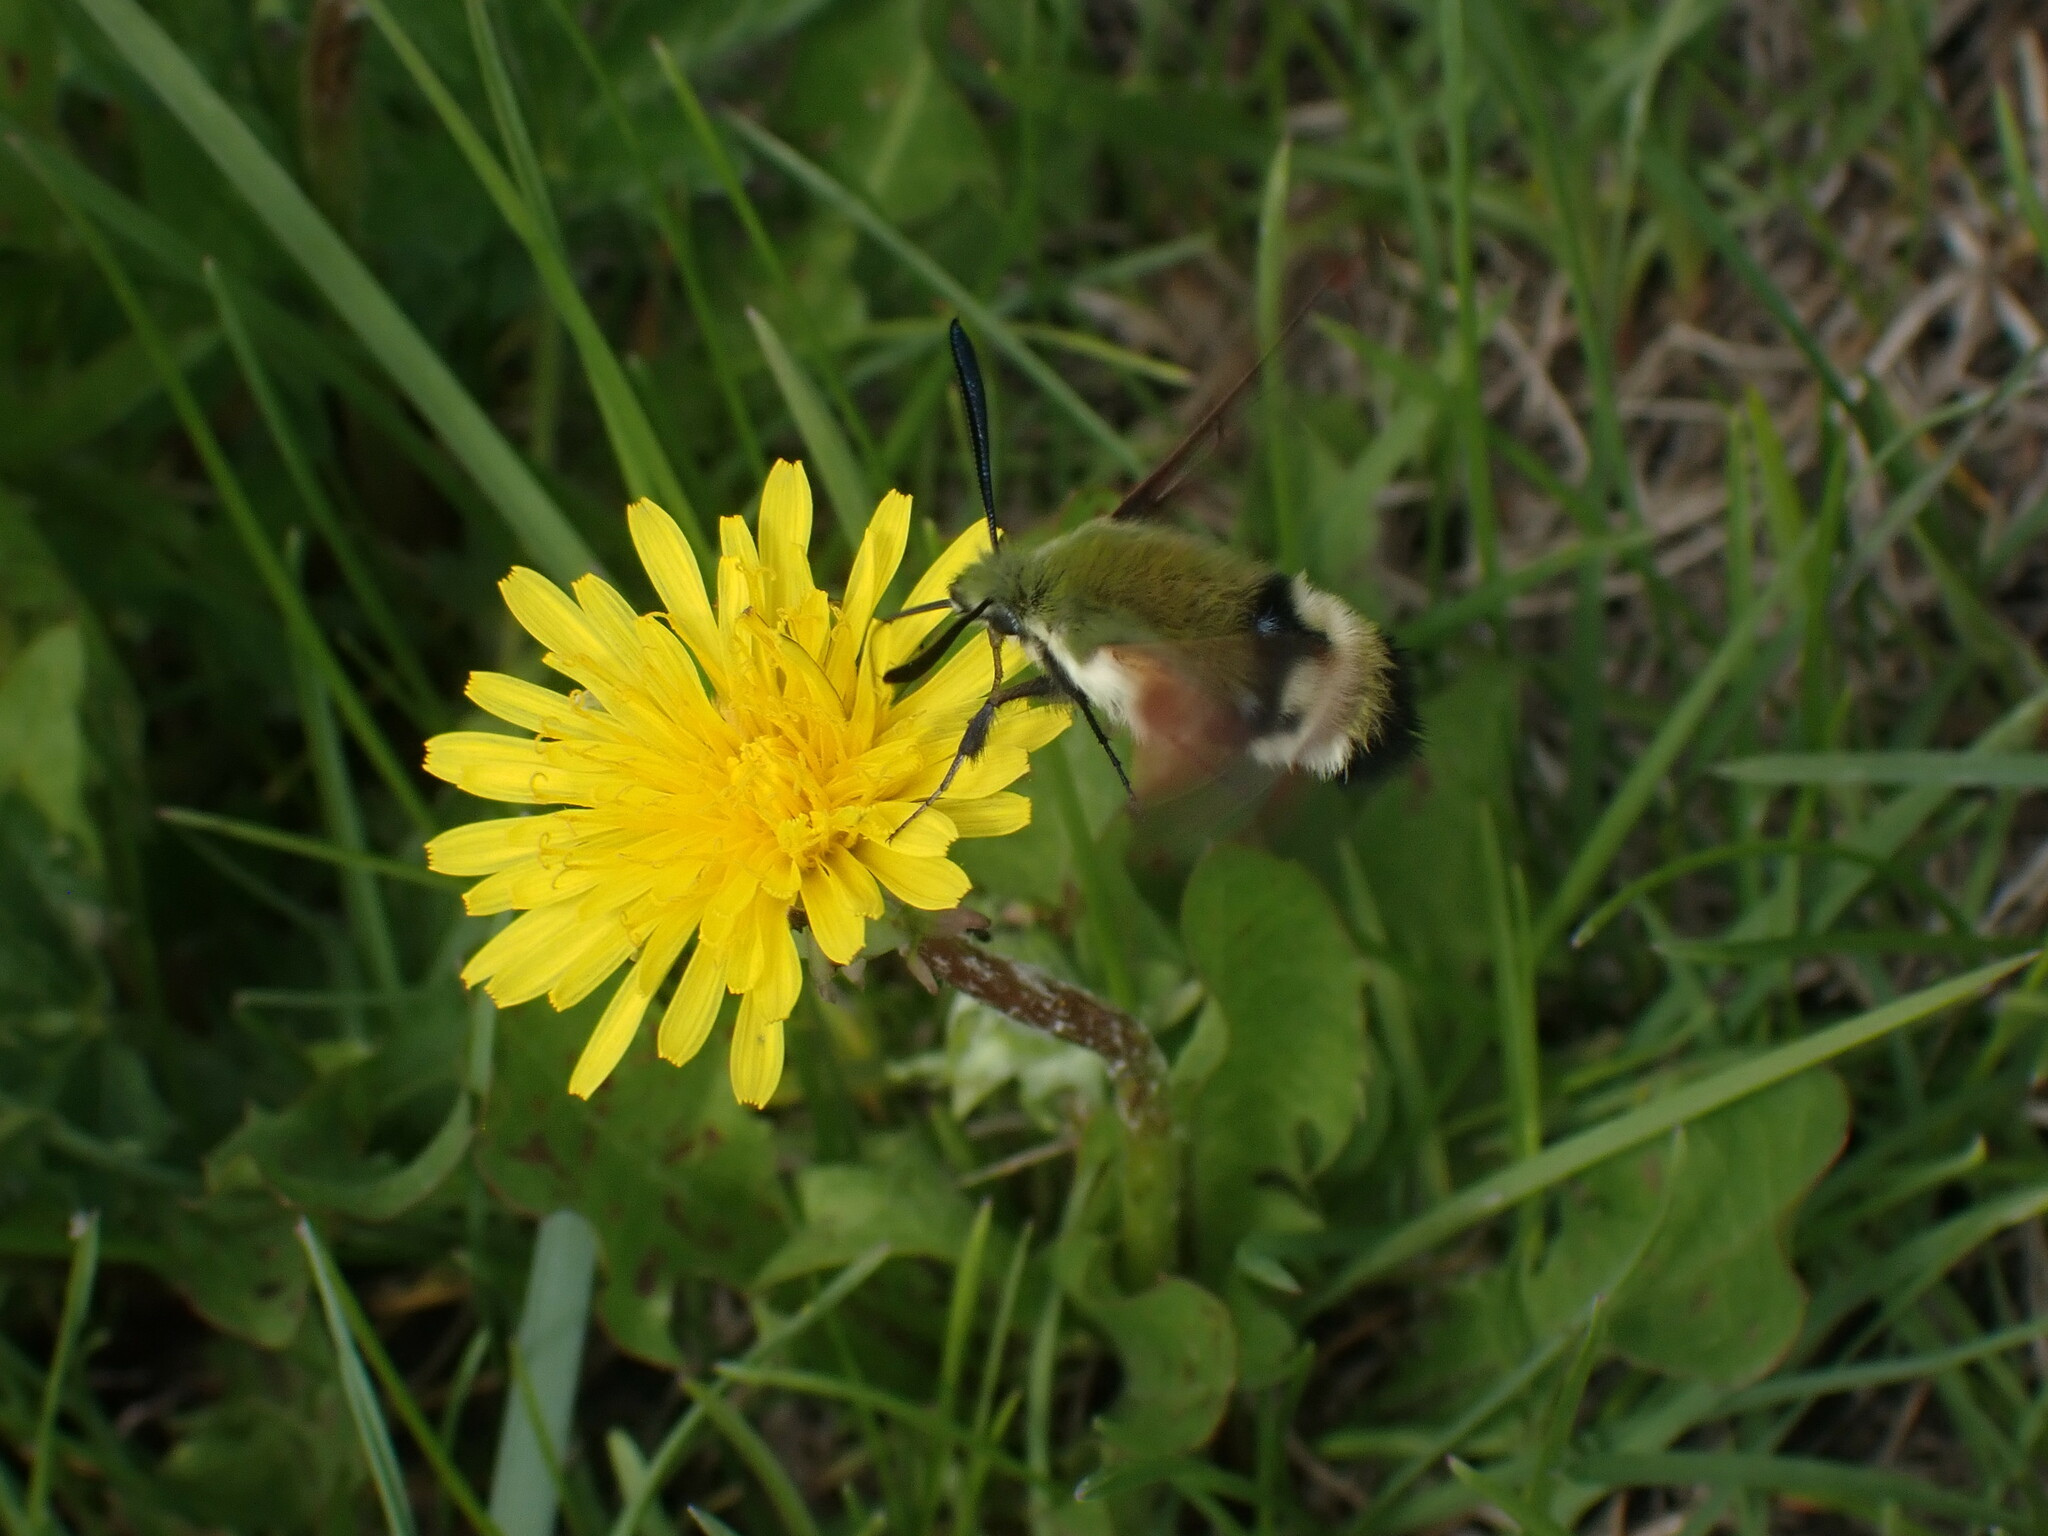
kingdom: Animalia
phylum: Arthropoda
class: Insecta
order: Lepidoptera
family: Sphingidae
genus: Hemaris
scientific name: Hemaris thetis
